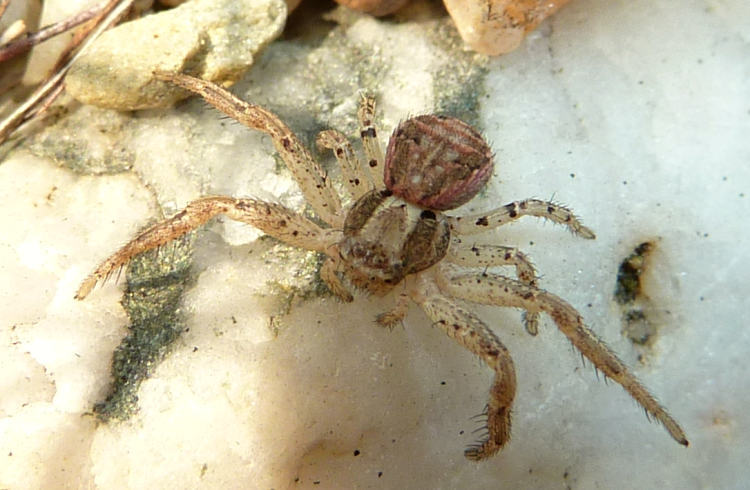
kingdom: Animalia
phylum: Arthropoda
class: Arachnida
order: Araneae
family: Thomisidae
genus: Xysticus
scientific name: Xysticus
